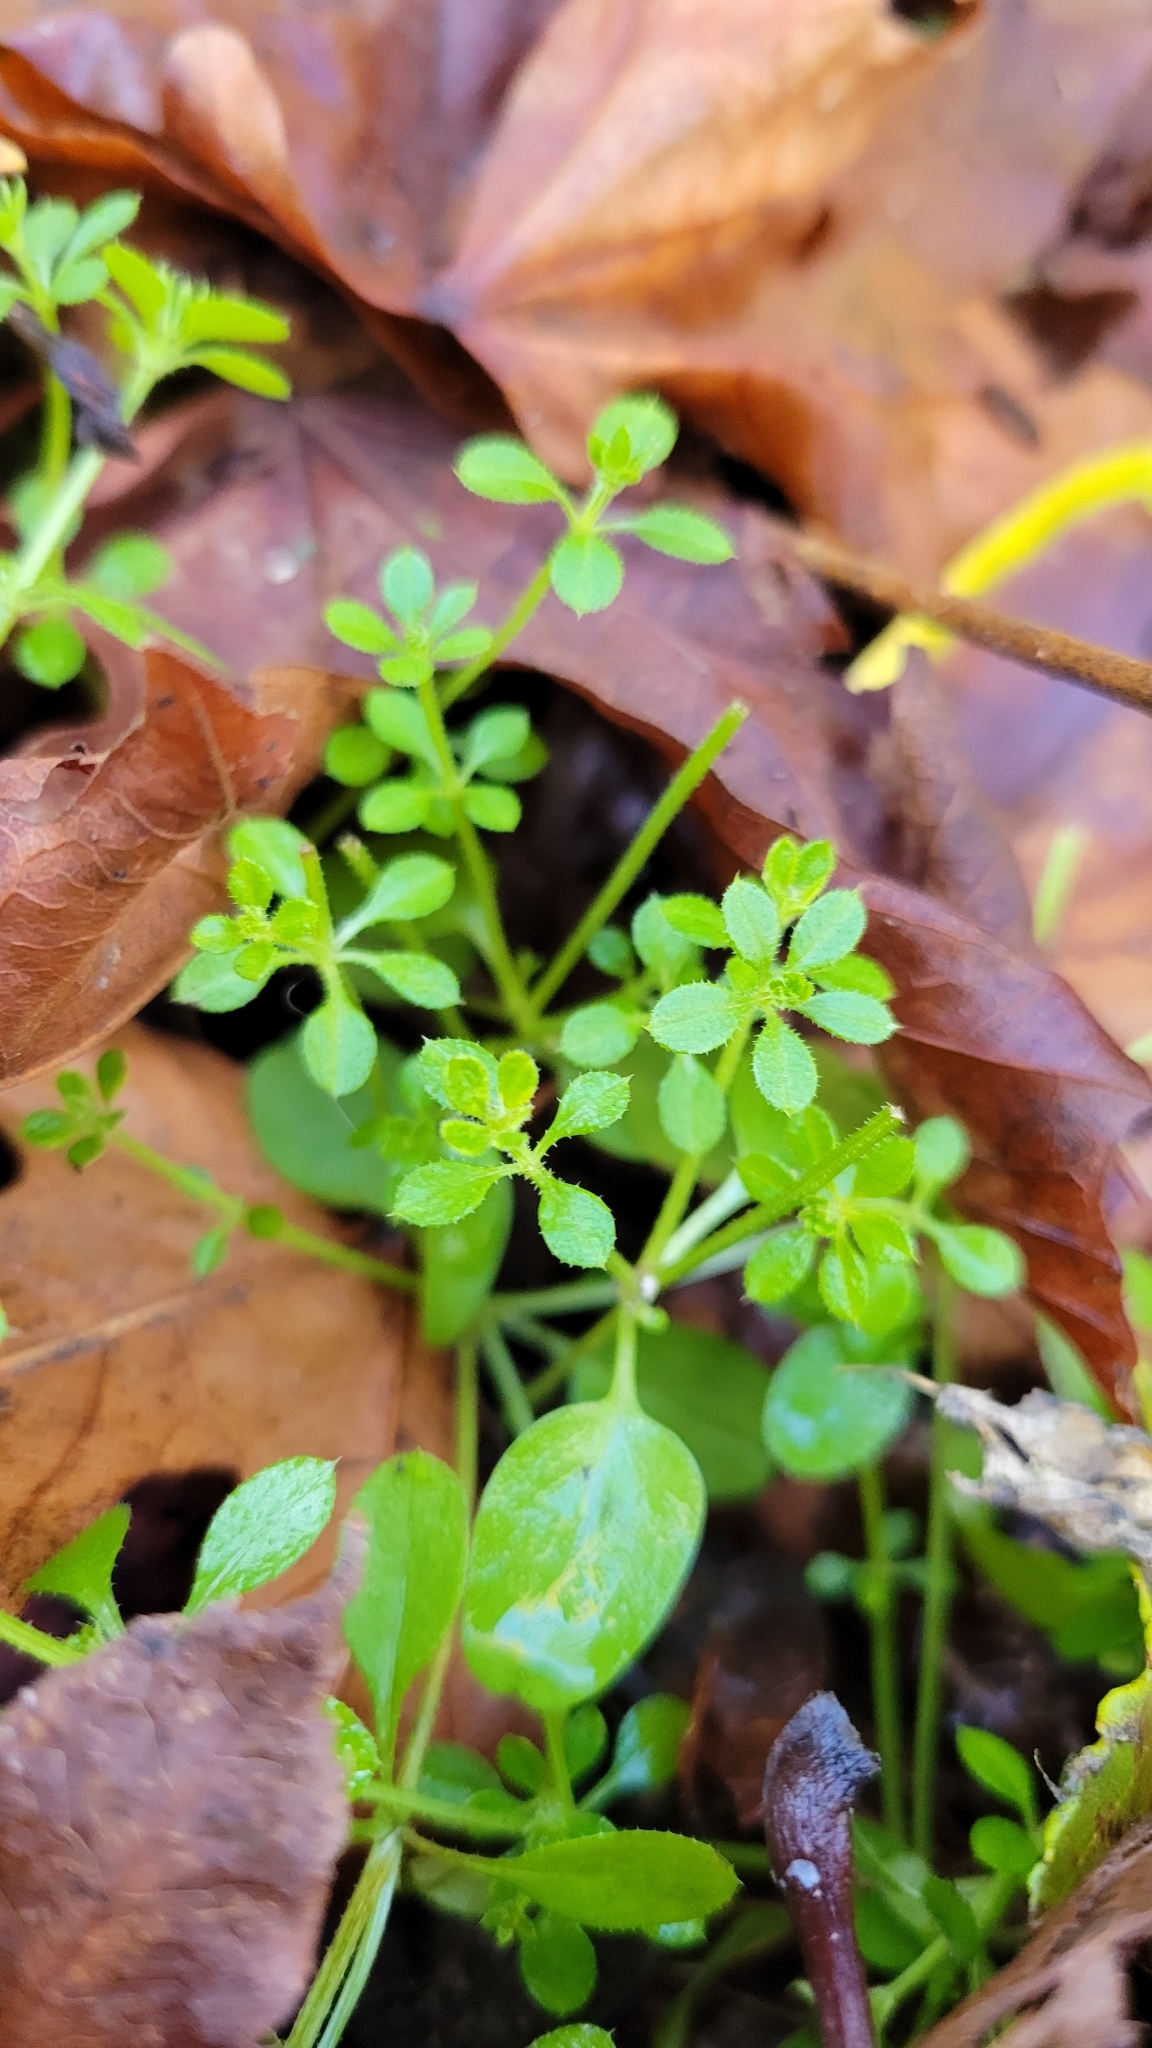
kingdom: Plantae
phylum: Tracheophyta
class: Magnoliopsida
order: Gentianales
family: Rubiaceae
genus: Galium
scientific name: Galium aparine
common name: Cleavers
